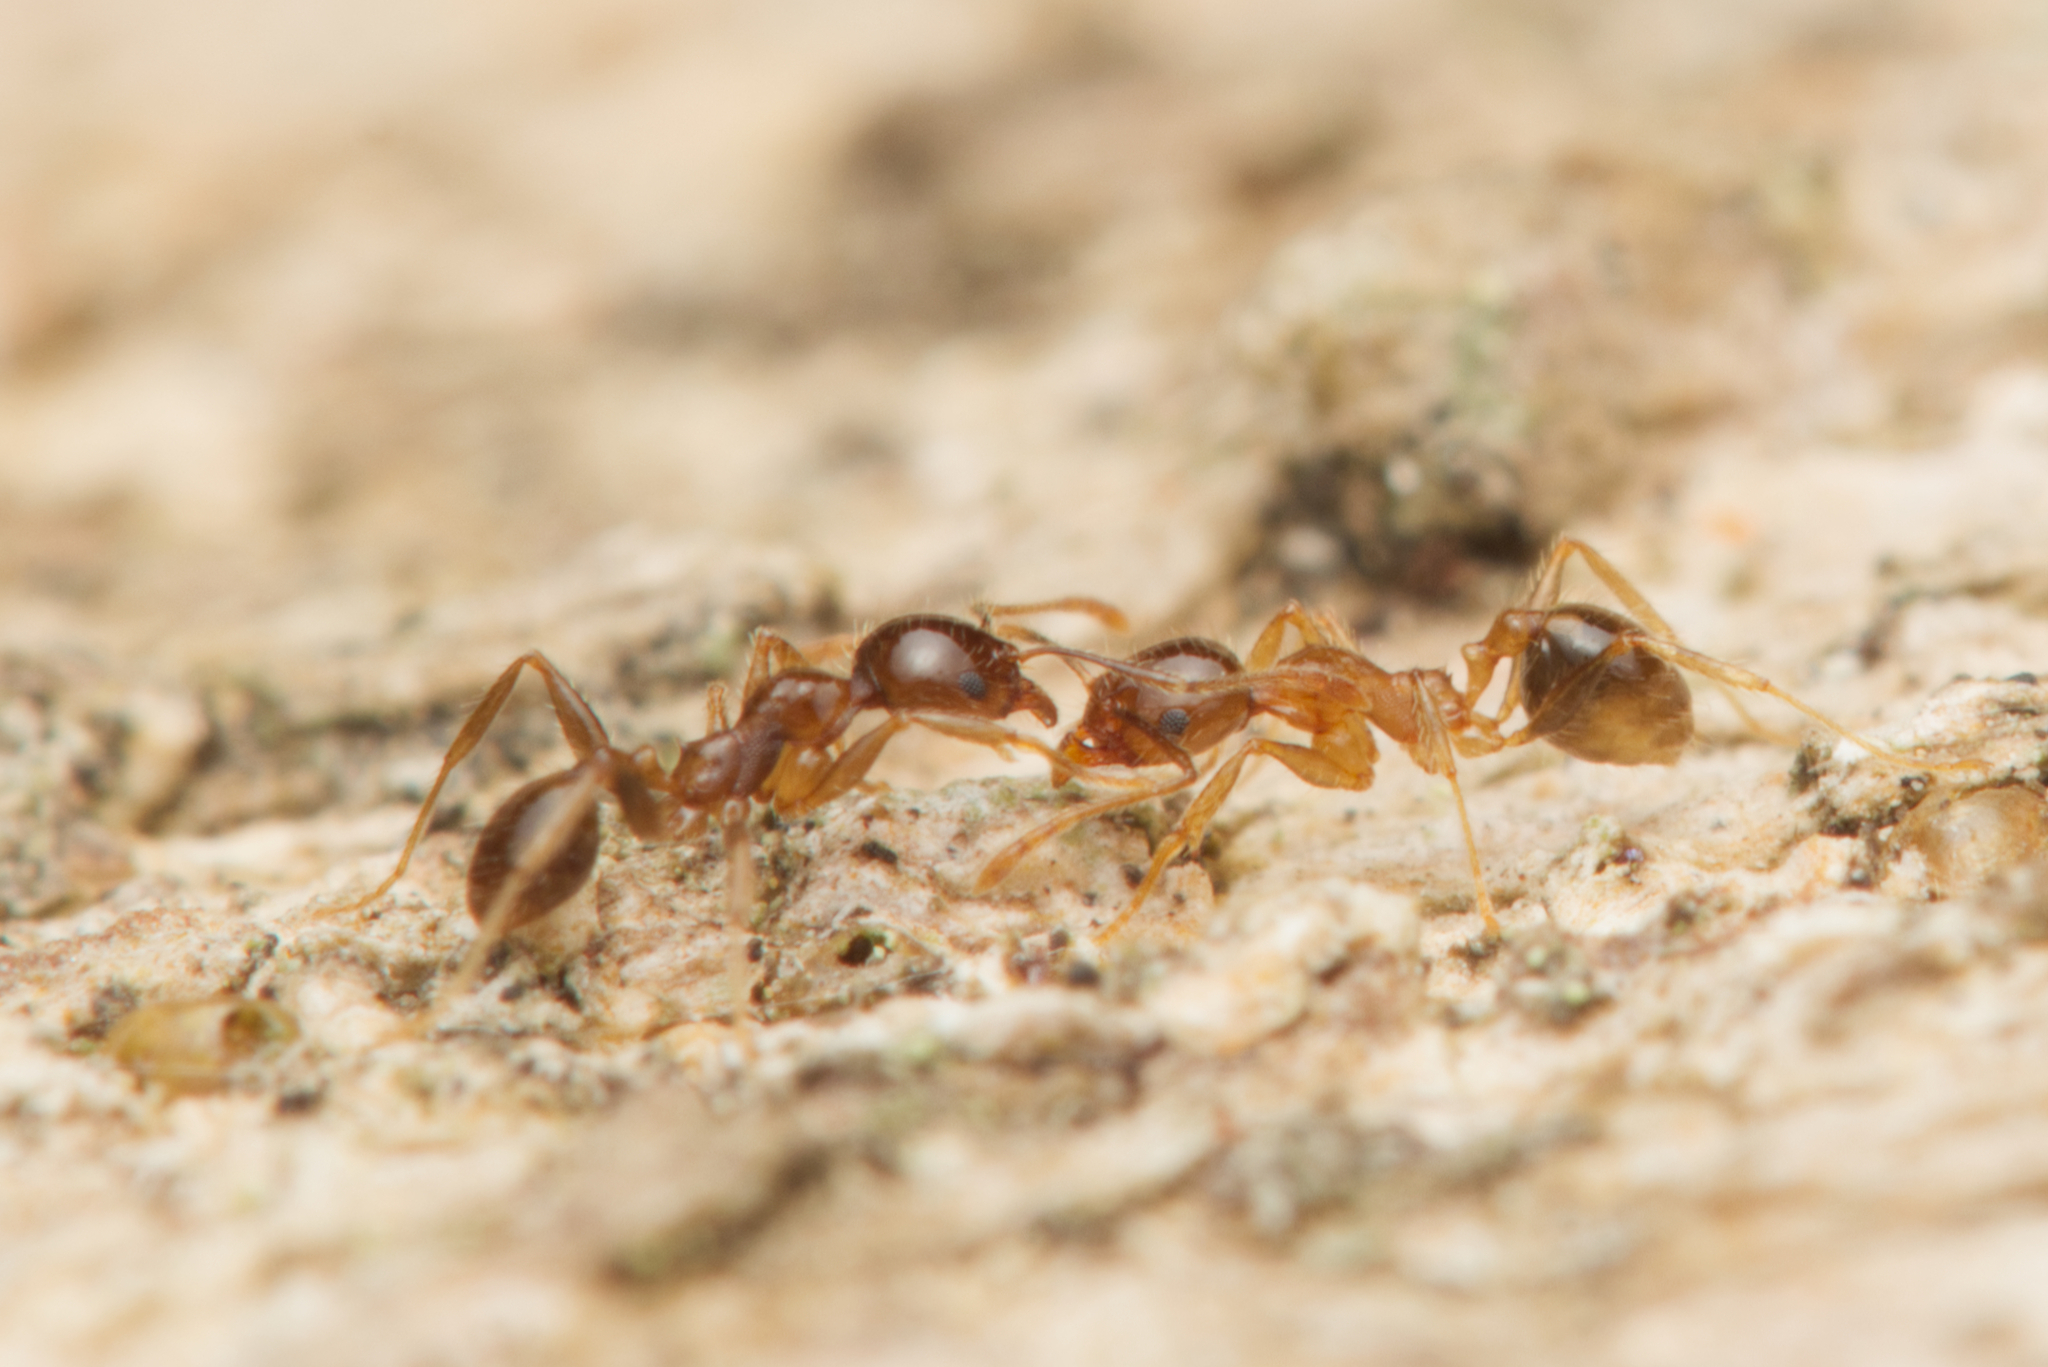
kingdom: Animalia
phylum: Arthropoda
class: Insecta
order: Hymenoptera
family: Formicidae
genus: Pheidole
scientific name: Pheidole megacephala
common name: Bigheaded ant
